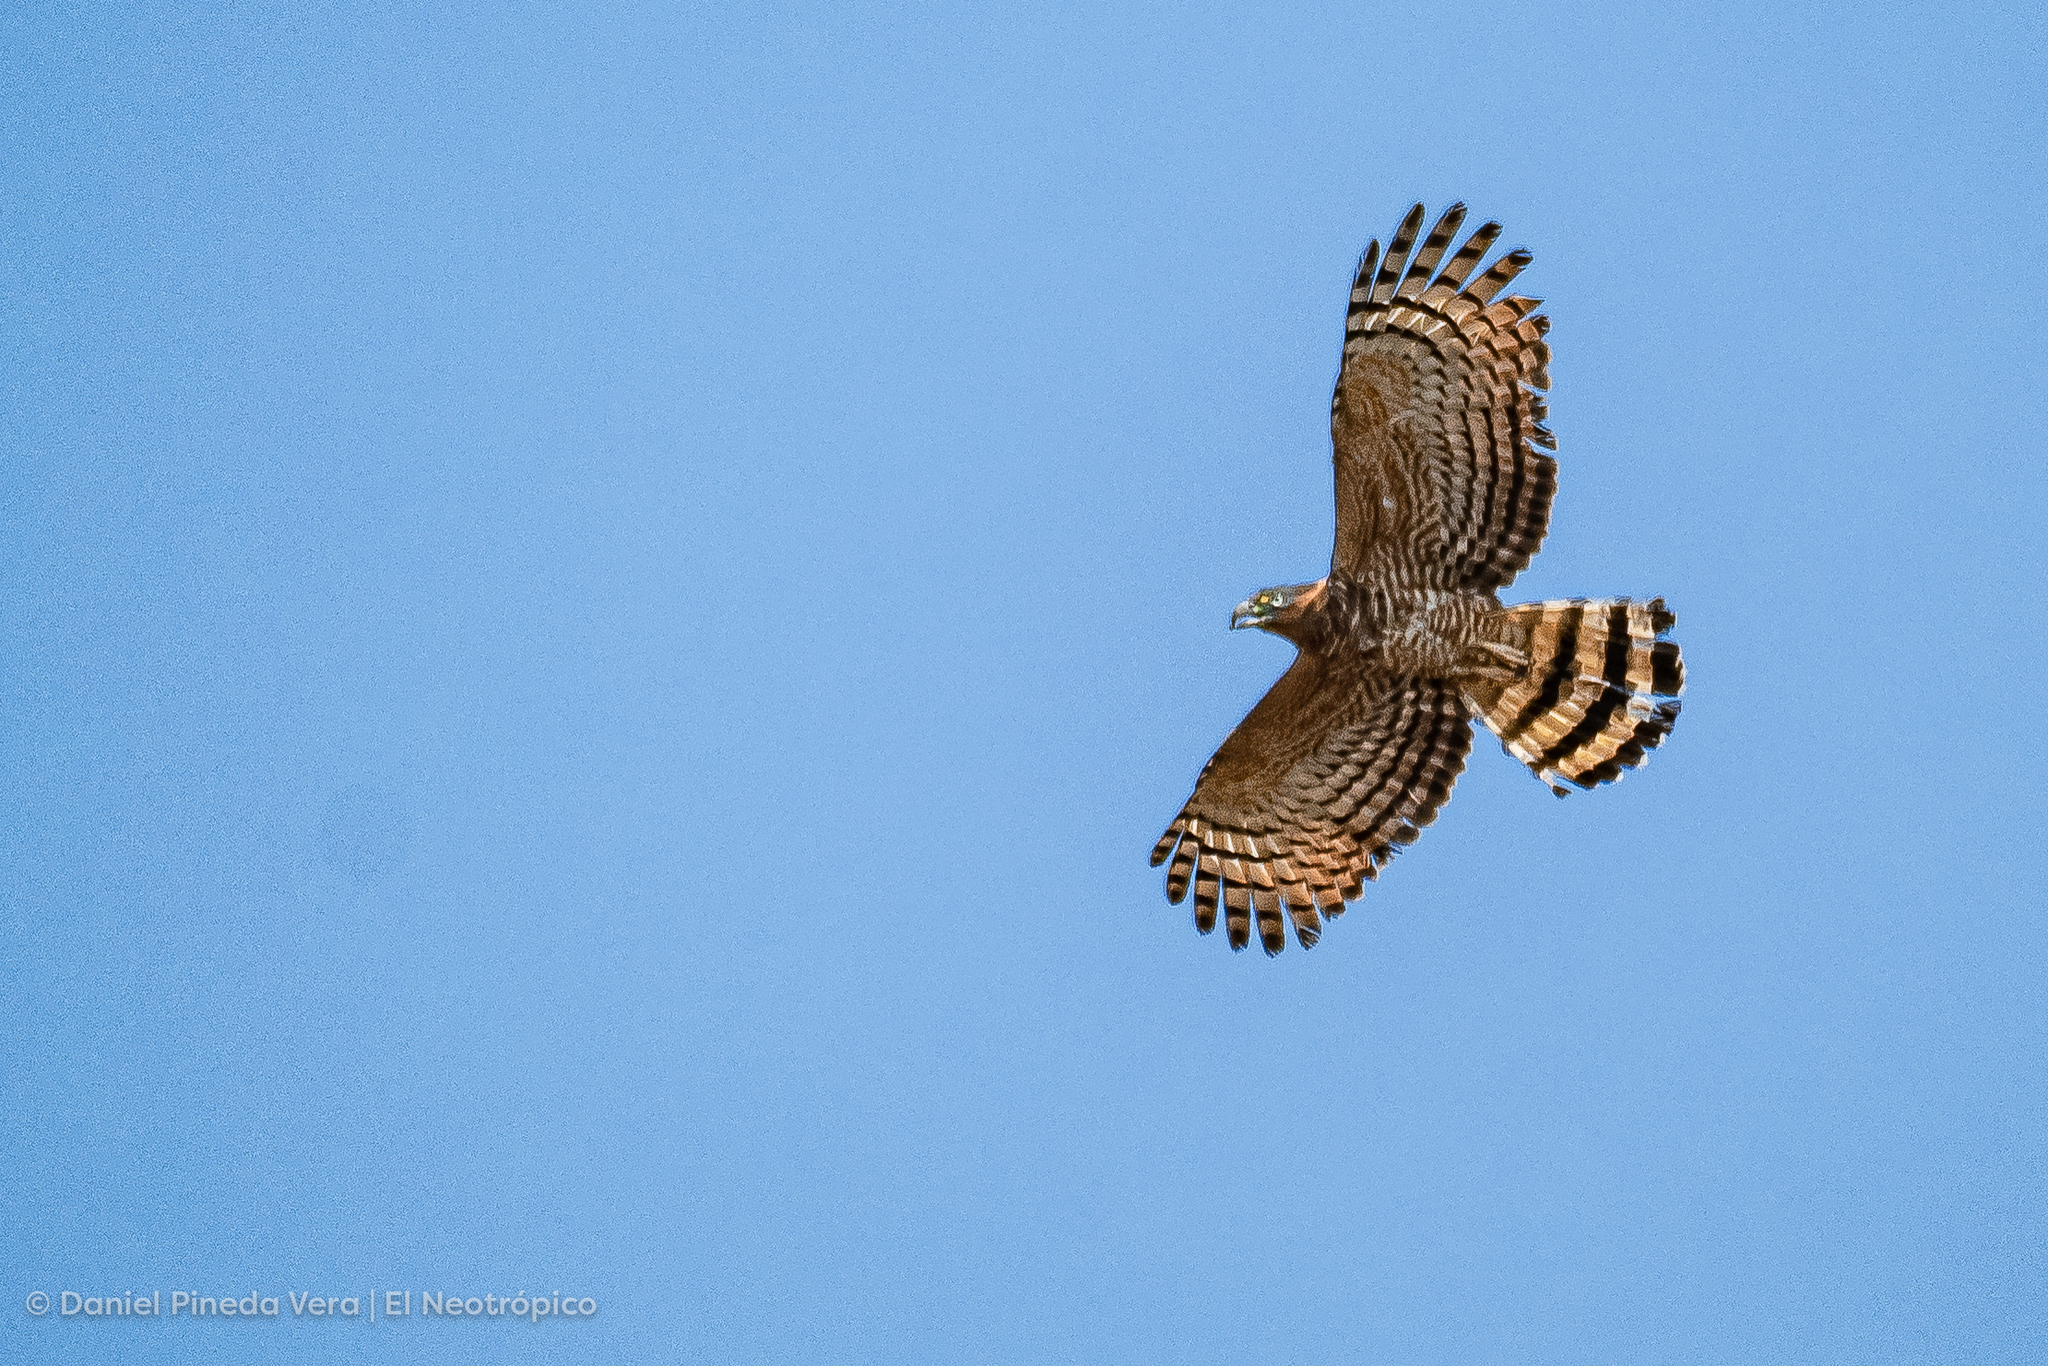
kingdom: Animalia
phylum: Chordata
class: Aves
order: Accipitriformes
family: Accipitridae
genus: Chondrohierax
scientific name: Chondrohierax uncinatus
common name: Hook-billed kite
